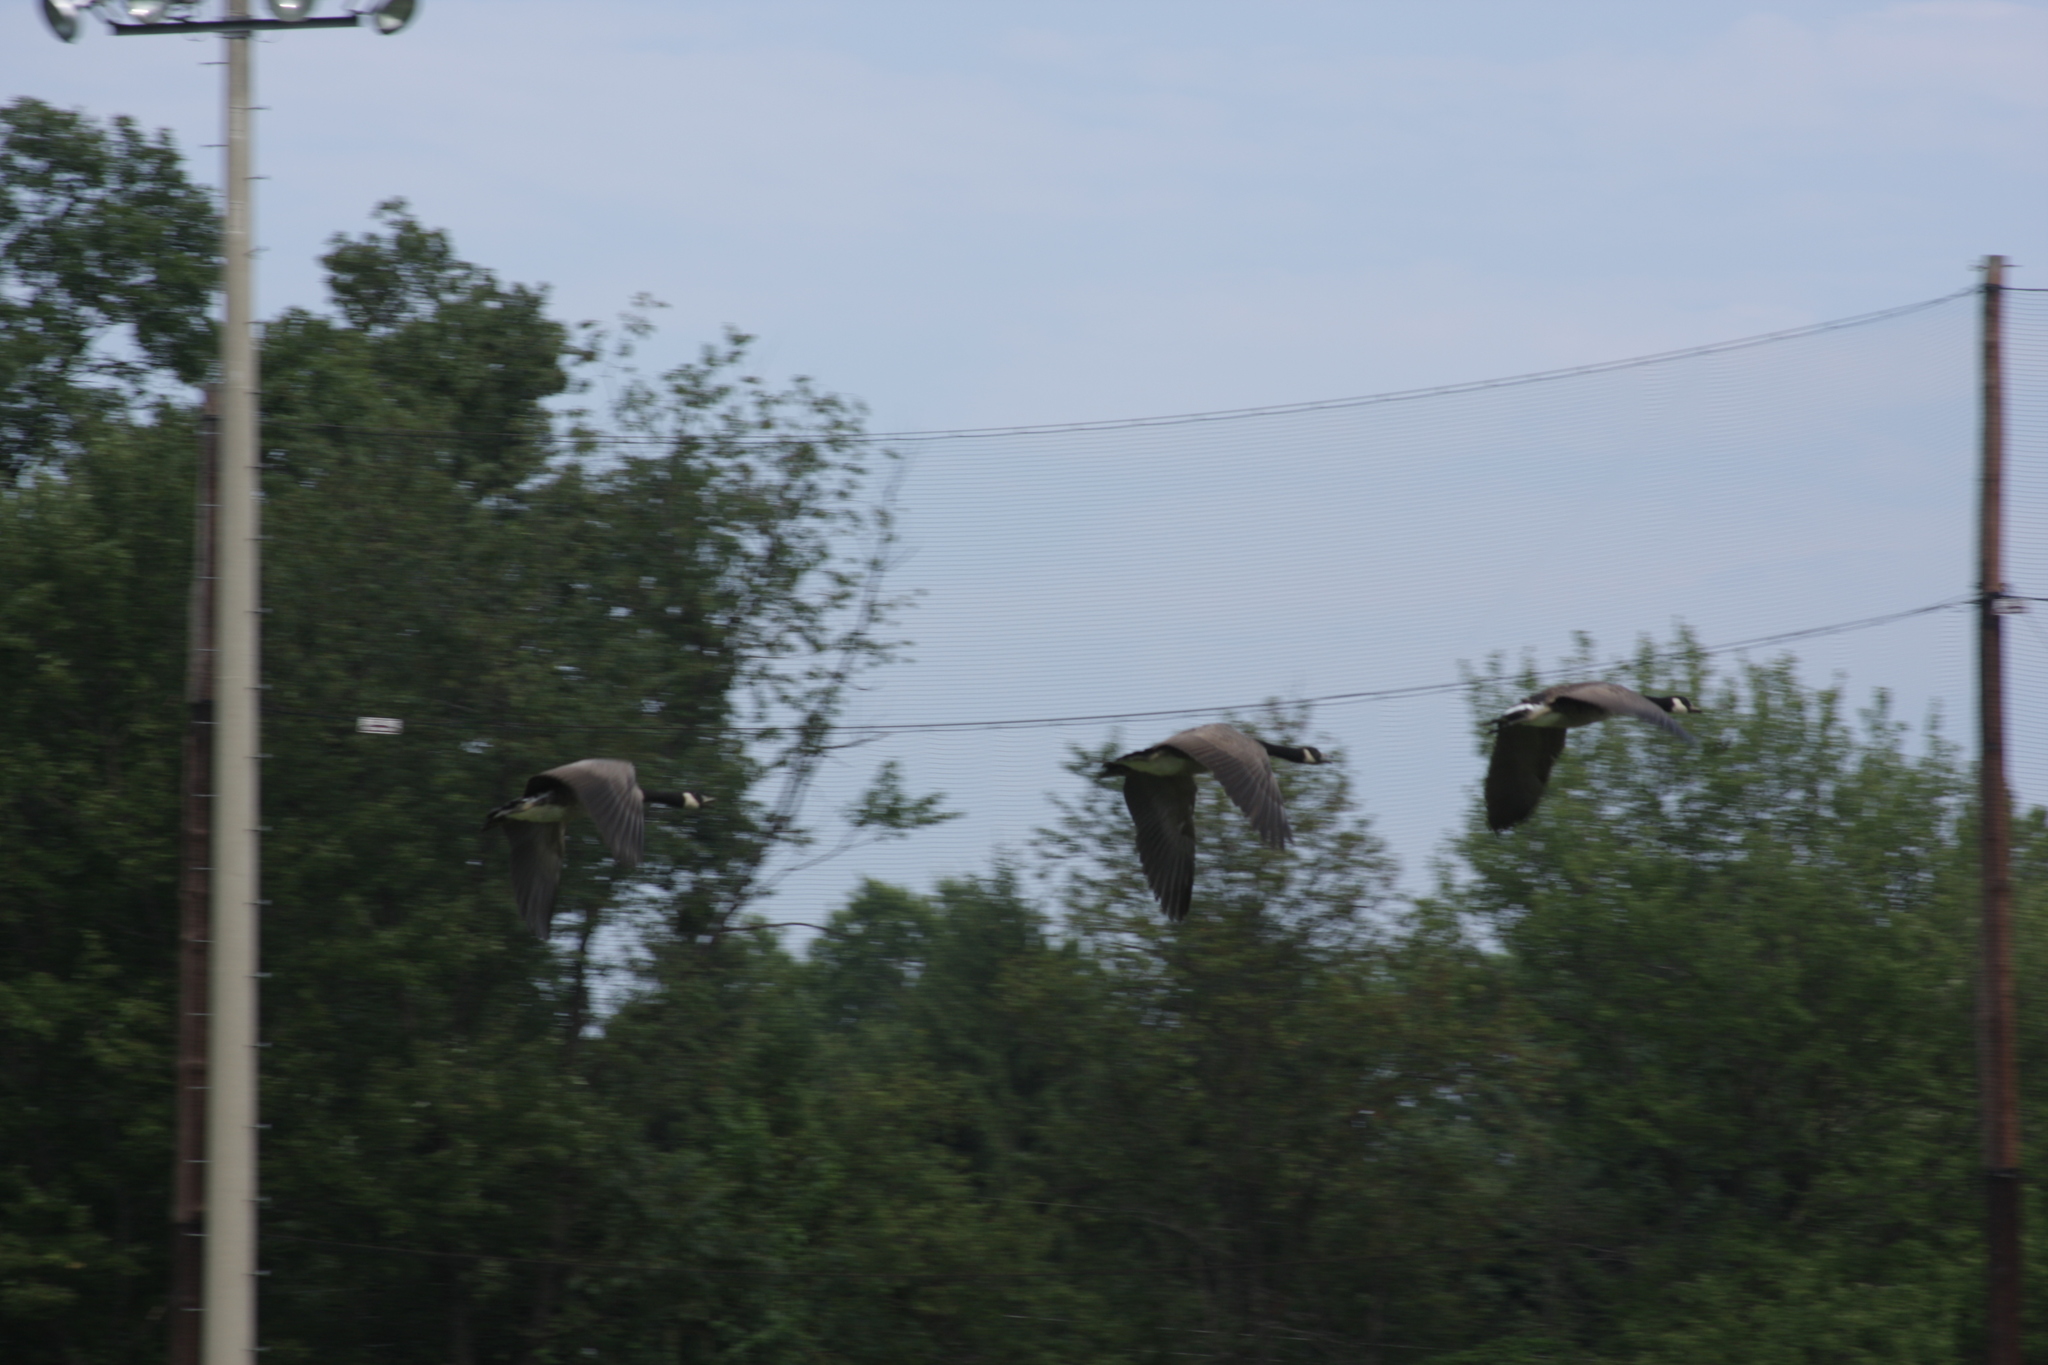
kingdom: Animalia
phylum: Chordata
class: Aves
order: Anseriformes
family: Anatidae
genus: Branta
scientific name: Branta canadensis
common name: Canada goose
